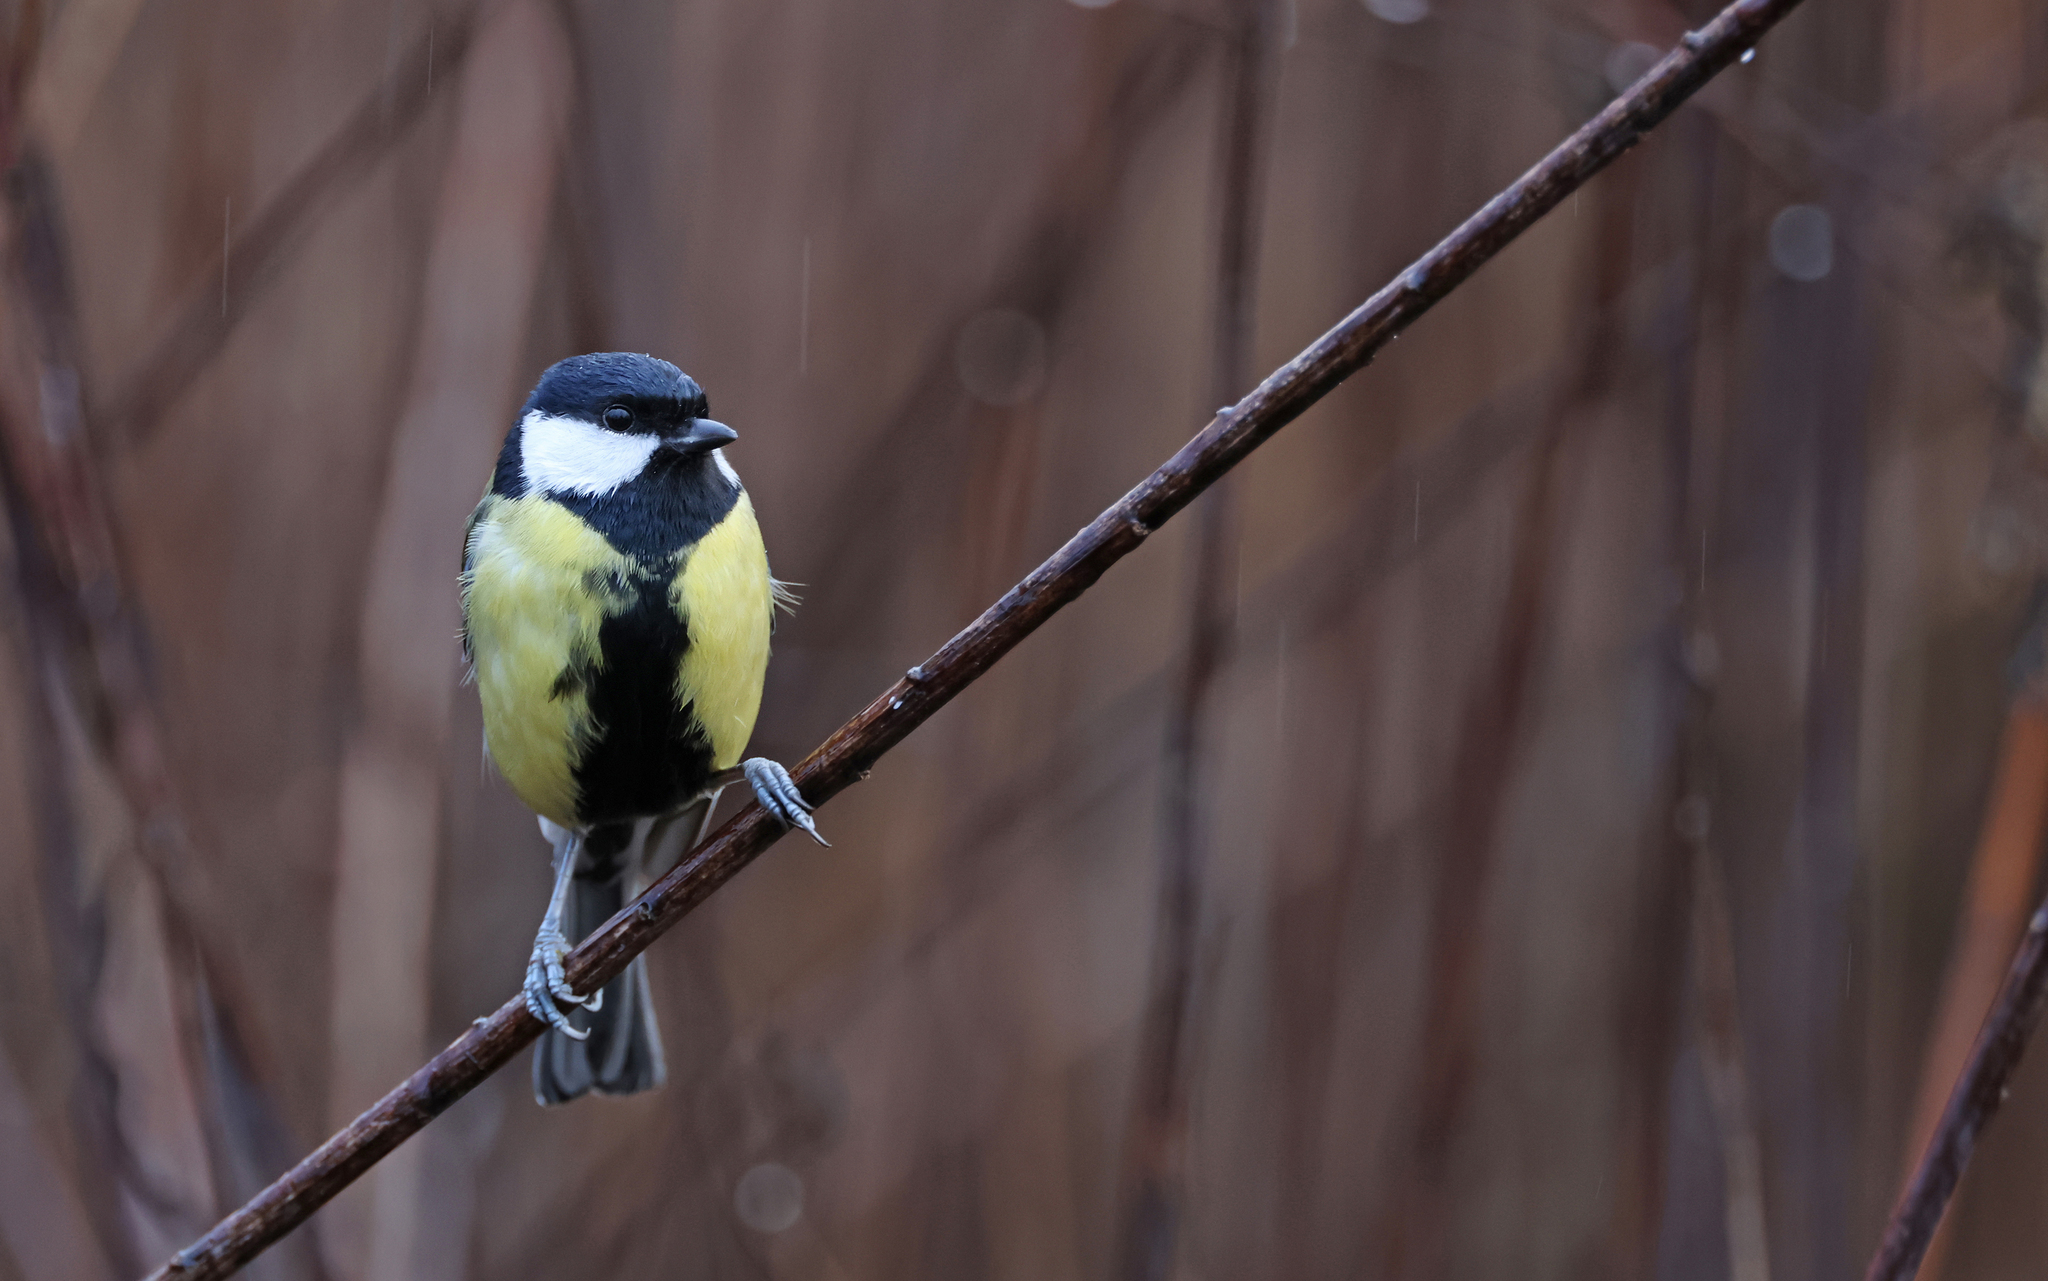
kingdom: Animalia
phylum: Chordata
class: Aves
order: Passeriformes
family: Paridae
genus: Parus
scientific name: Parus major
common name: Great tit
